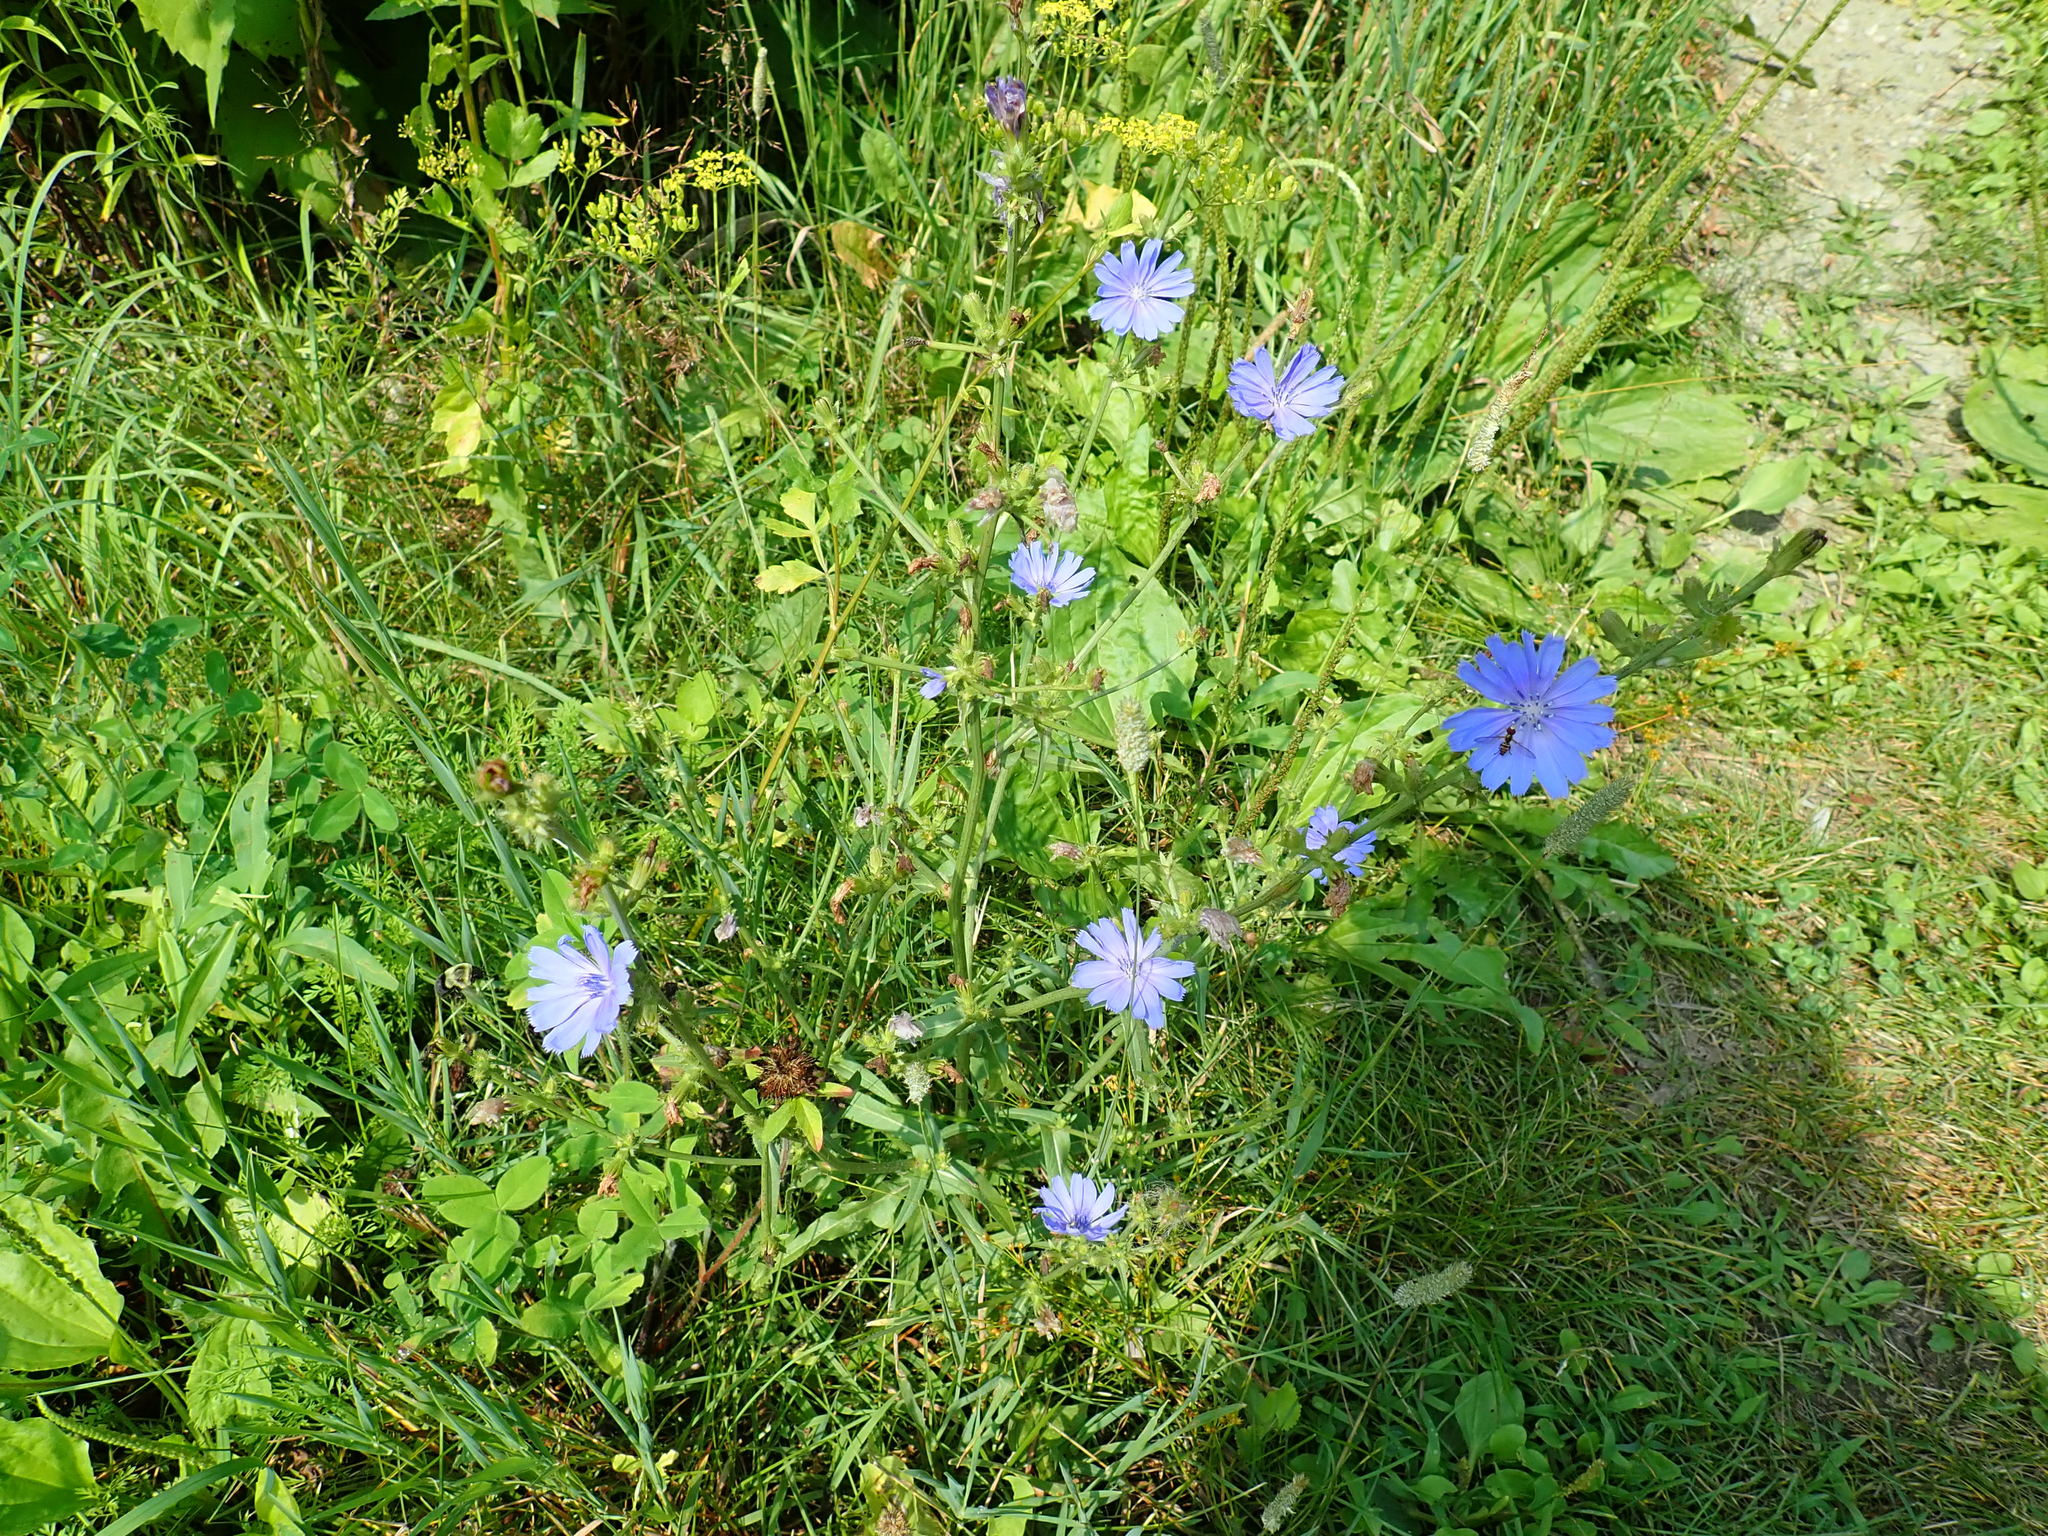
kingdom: Plantae
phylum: Tracheophyta
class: Magnoliopsida
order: Asterales
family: Asteraceae
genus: Cichorium
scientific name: Cichorium intybus
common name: Chicory
